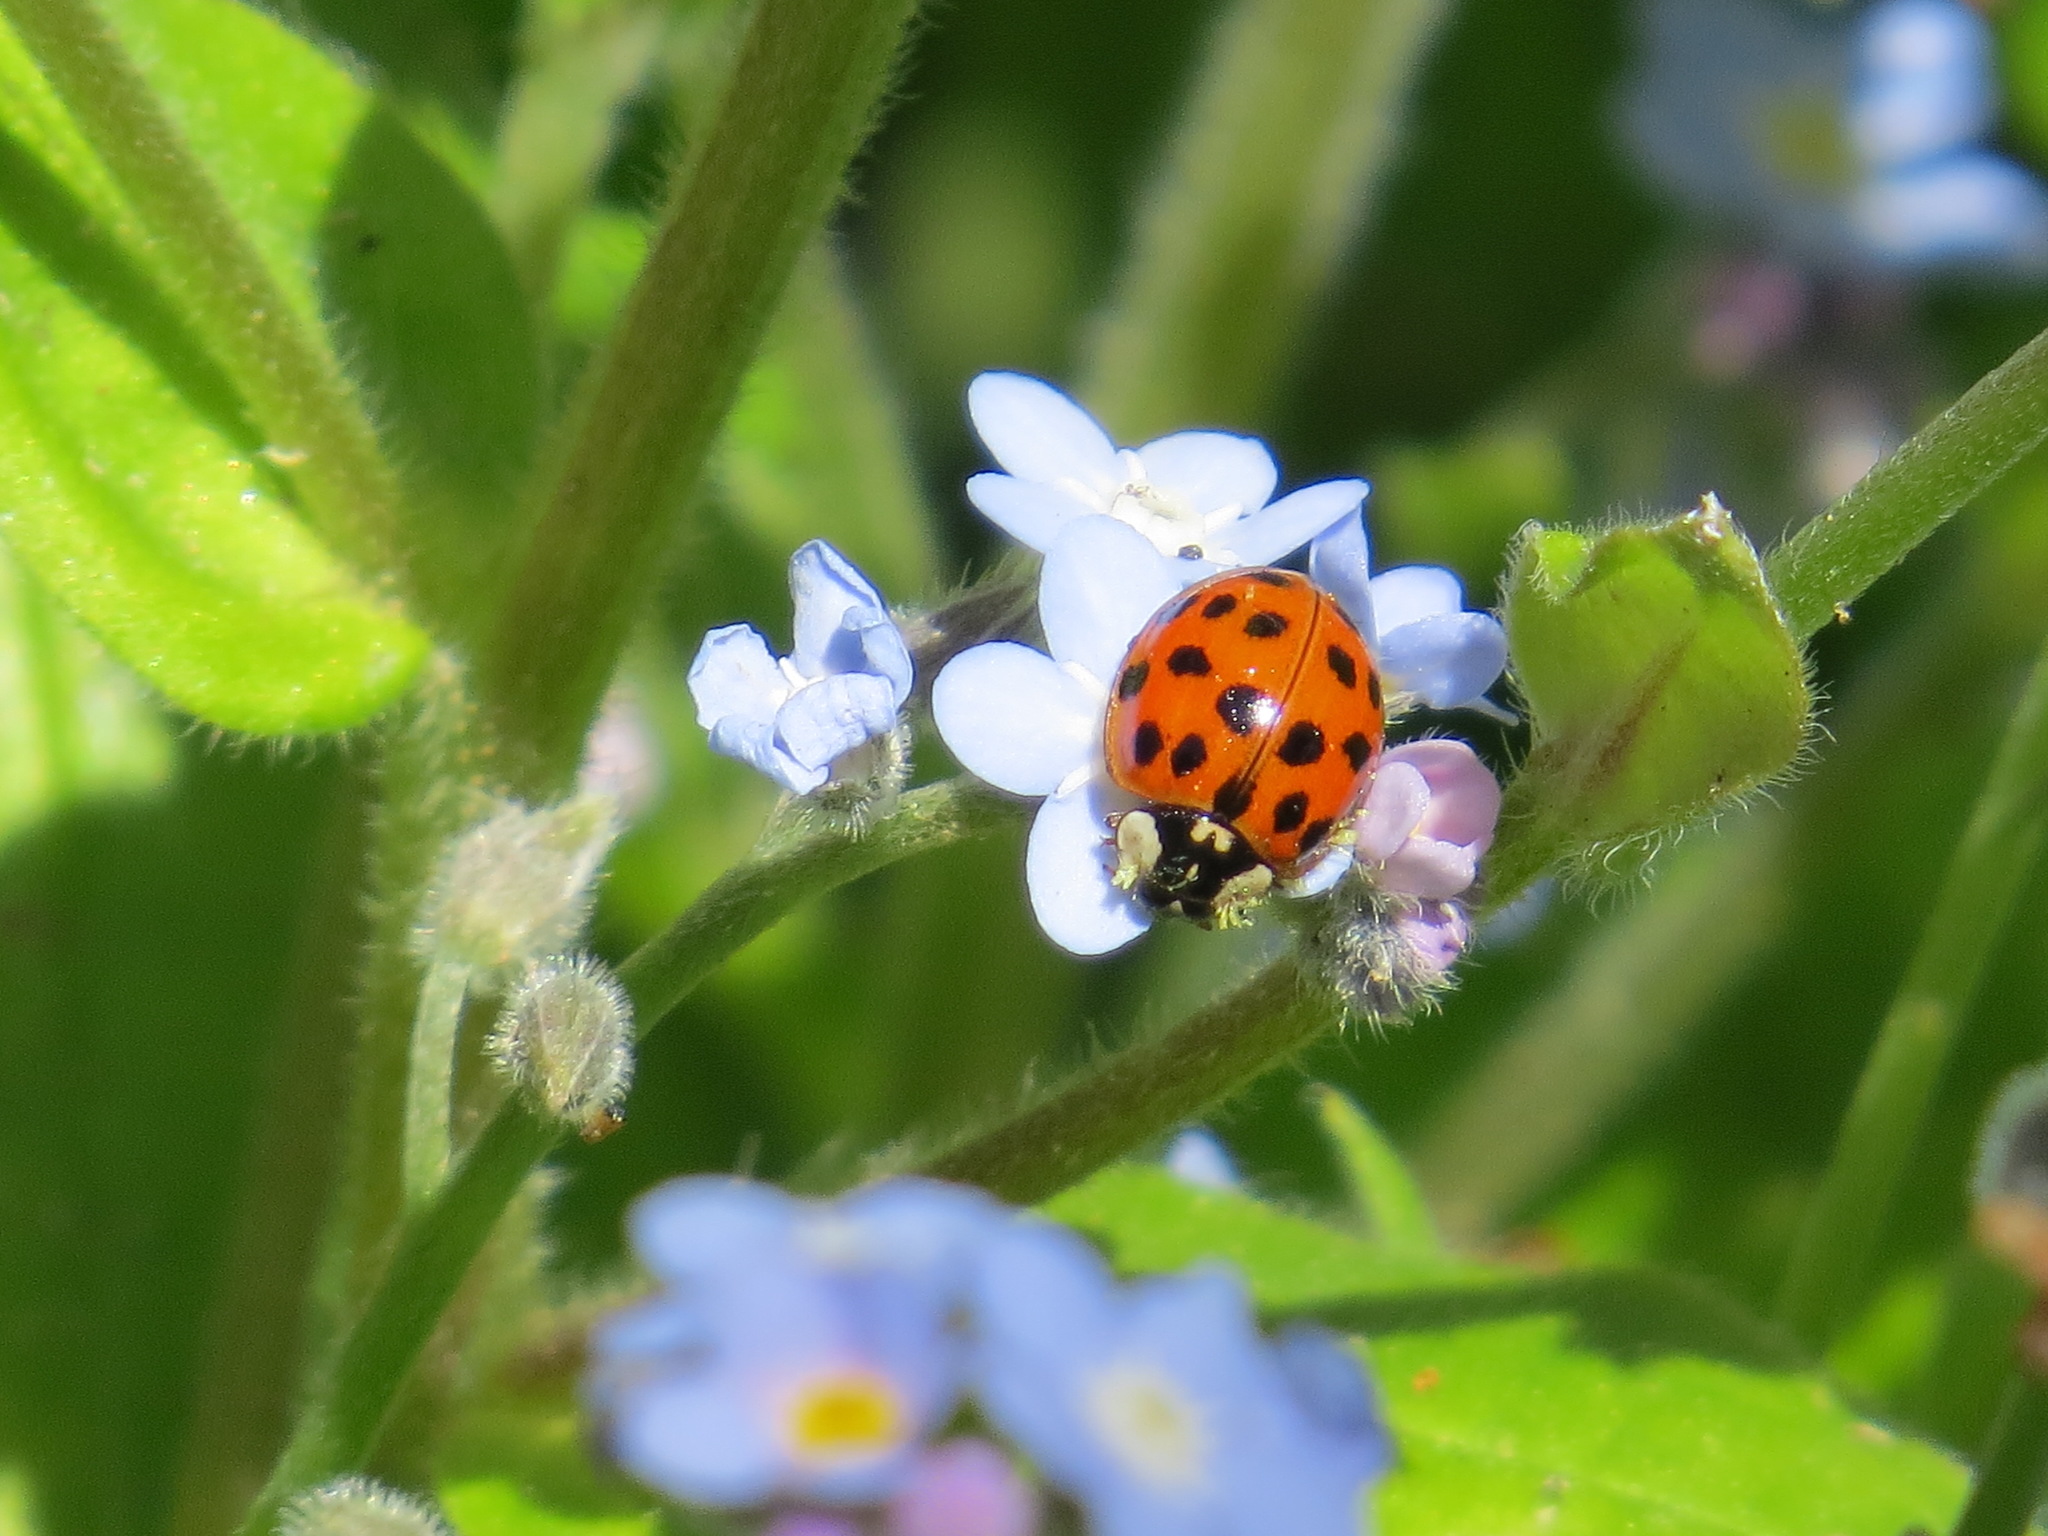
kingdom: Animalia
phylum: Arthropoda
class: Insecta
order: Coleoptera
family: Coccinellidae
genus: Harmonia
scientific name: Harmonia axyridis
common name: Harlequin ladybird
